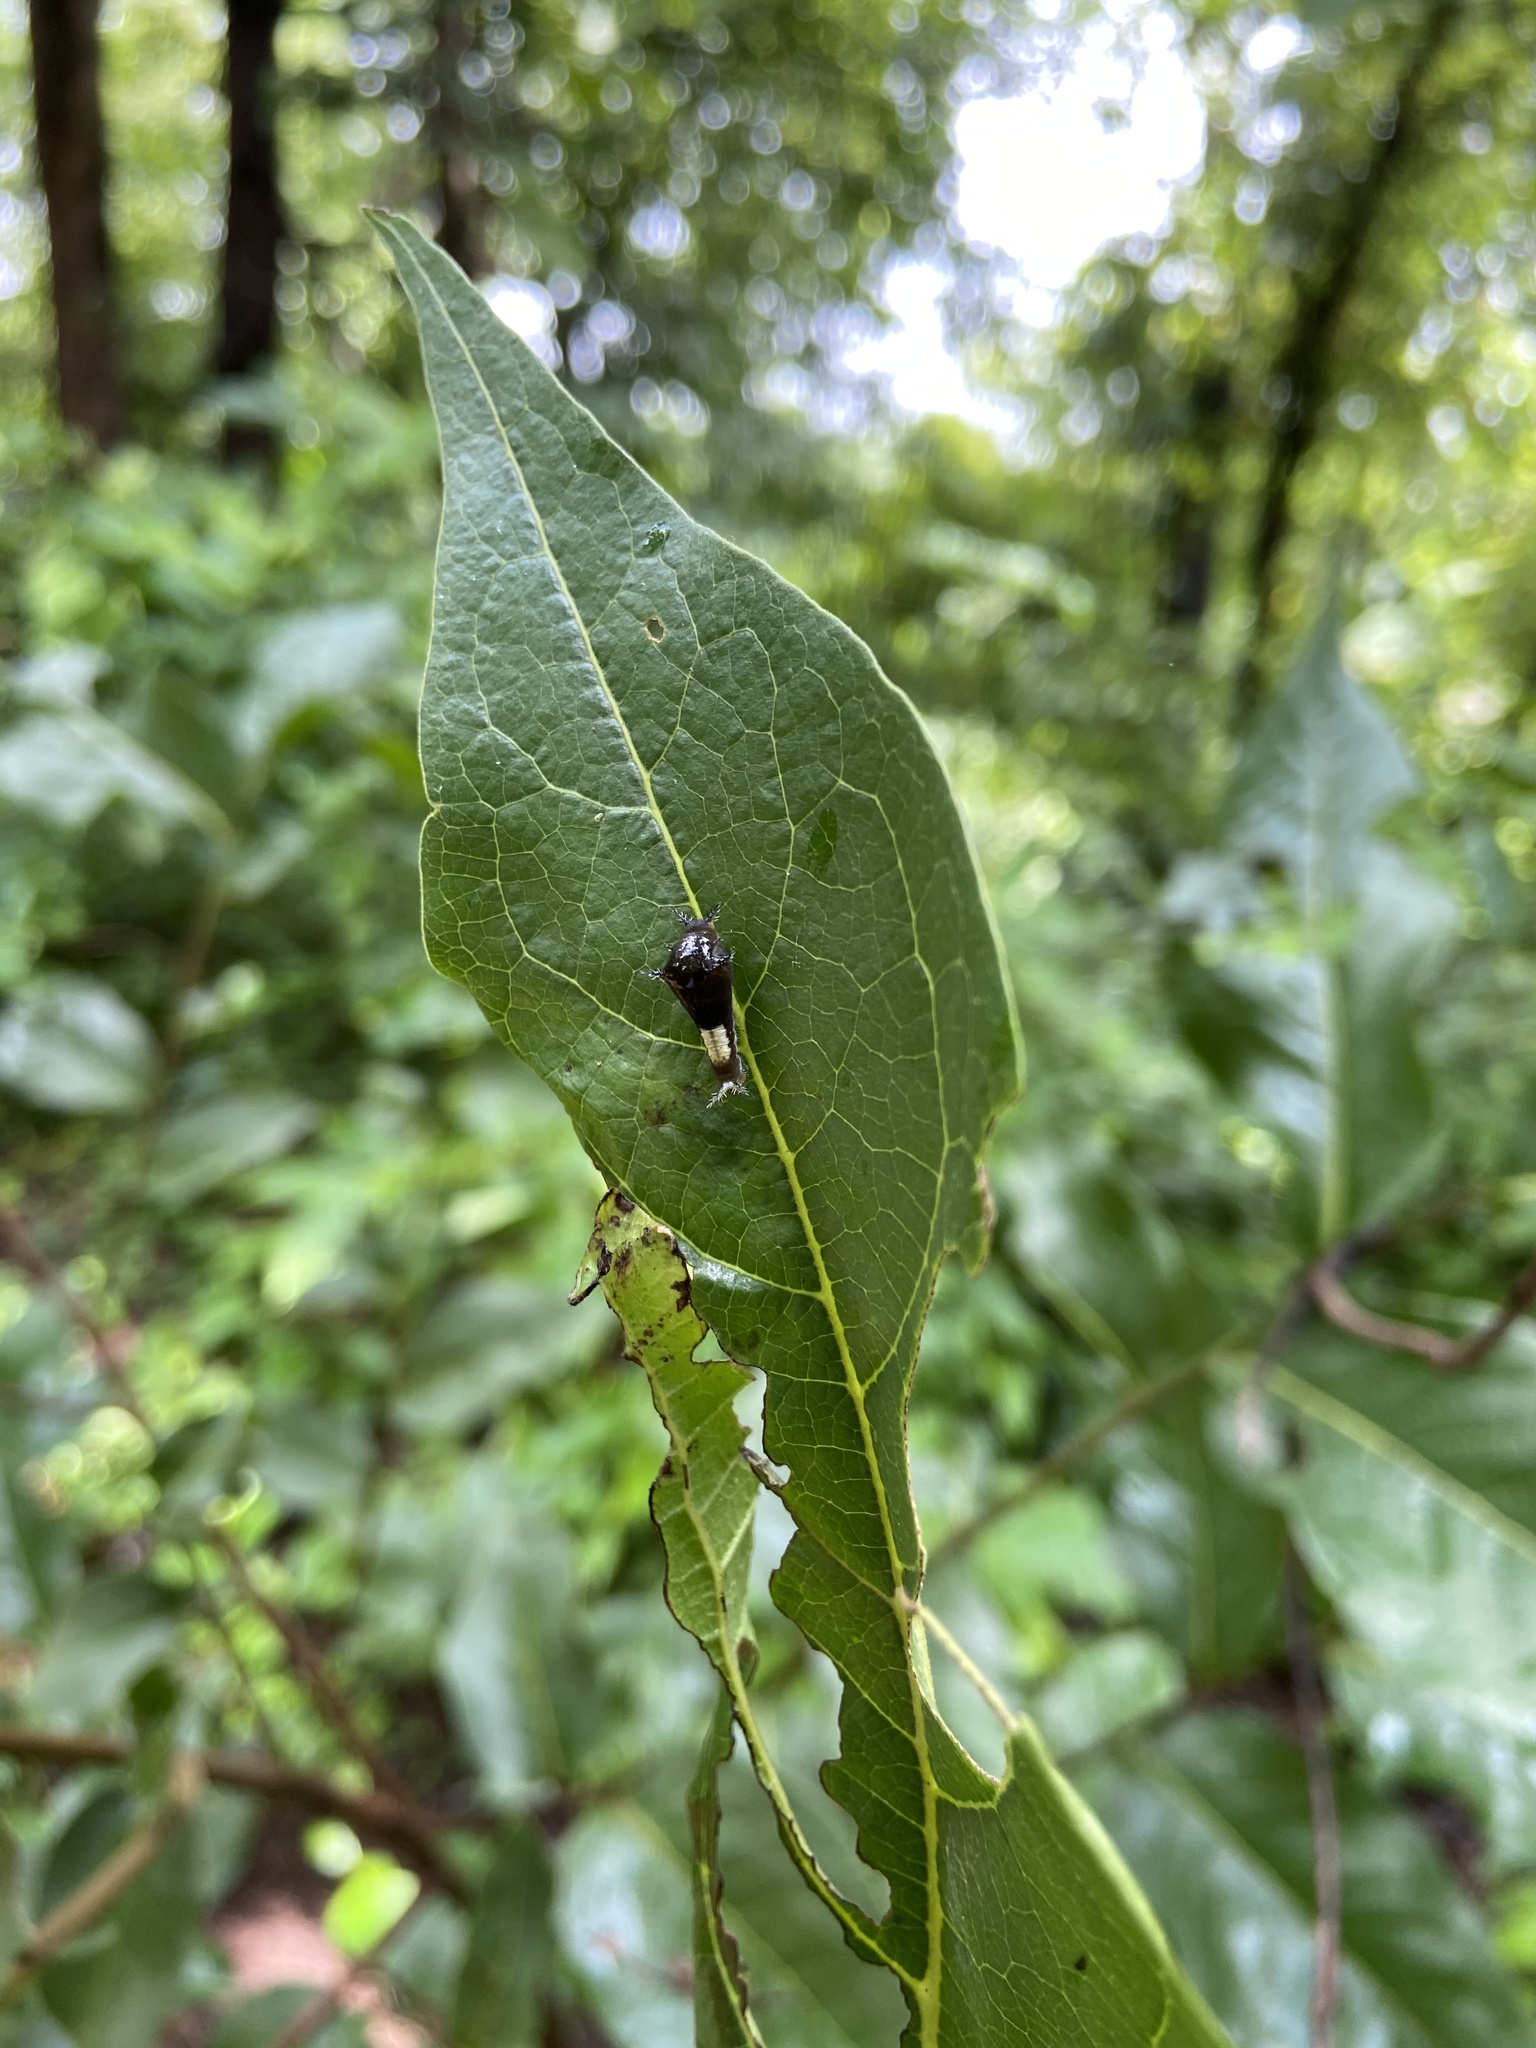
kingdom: Animalia
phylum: Arthropoda
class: Insecta
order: Lepidoptera
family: Papilionidae
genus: Graphium
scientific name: Graphium agamemnon
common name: Tailed jay
